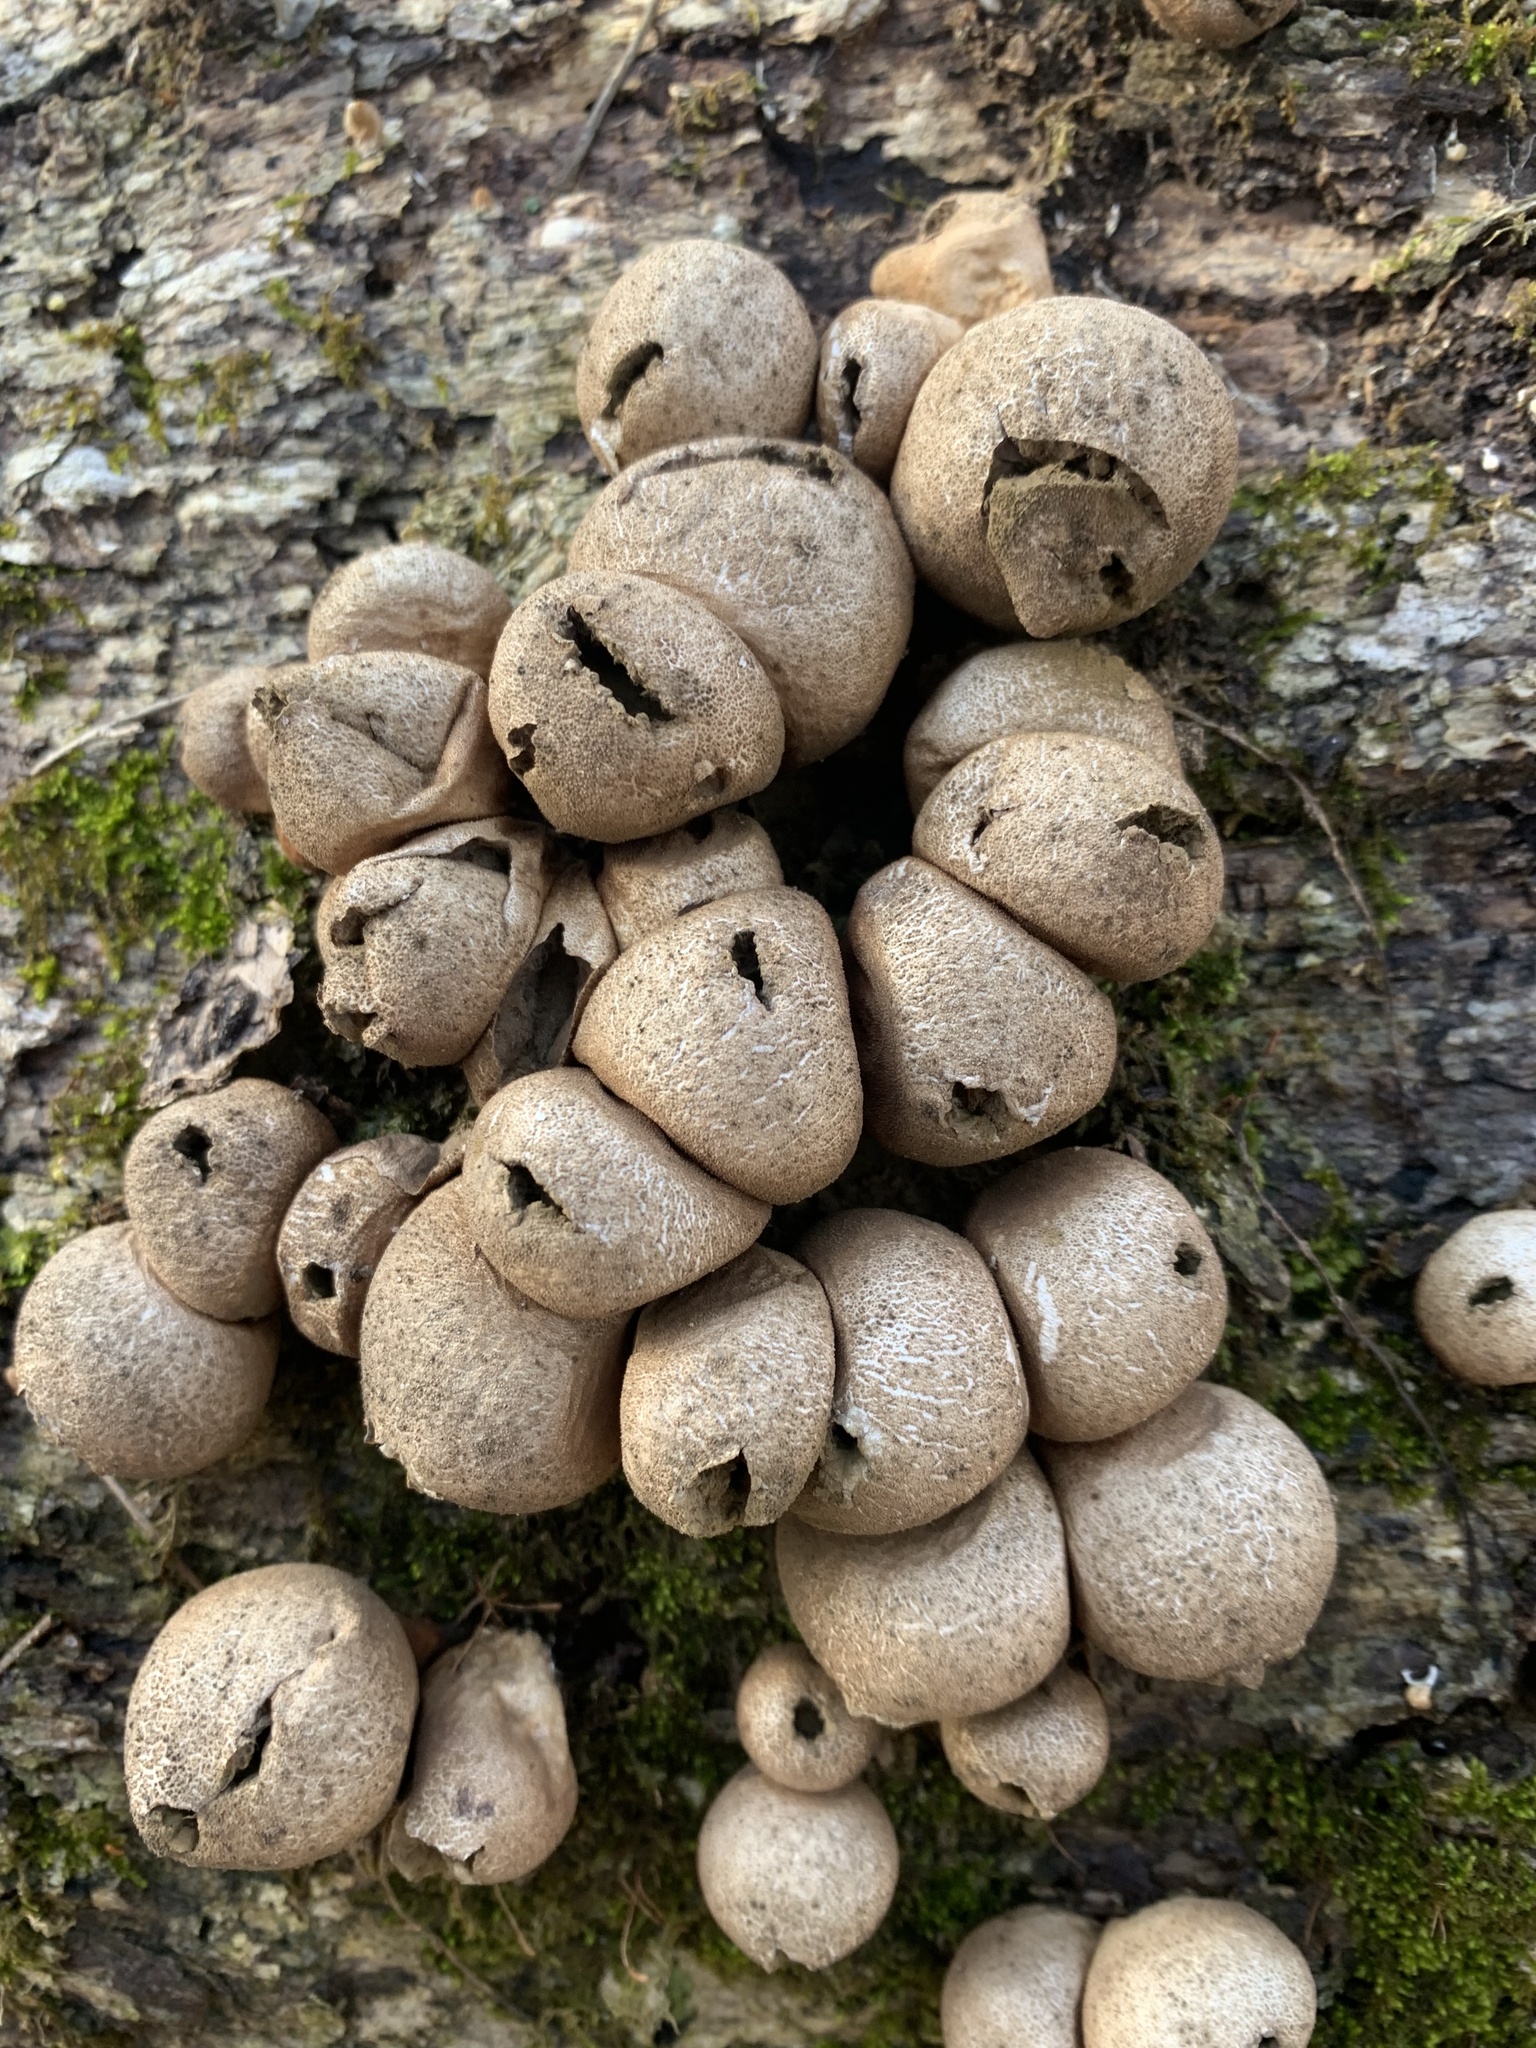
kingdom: Fungi
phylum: Basidiomycota
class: Agaricomycetes
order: Agaricales
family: Lycoperdaceae
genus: Apioperdon
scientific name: Apioperdon pyriforme
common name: Pear-shaped puffball
